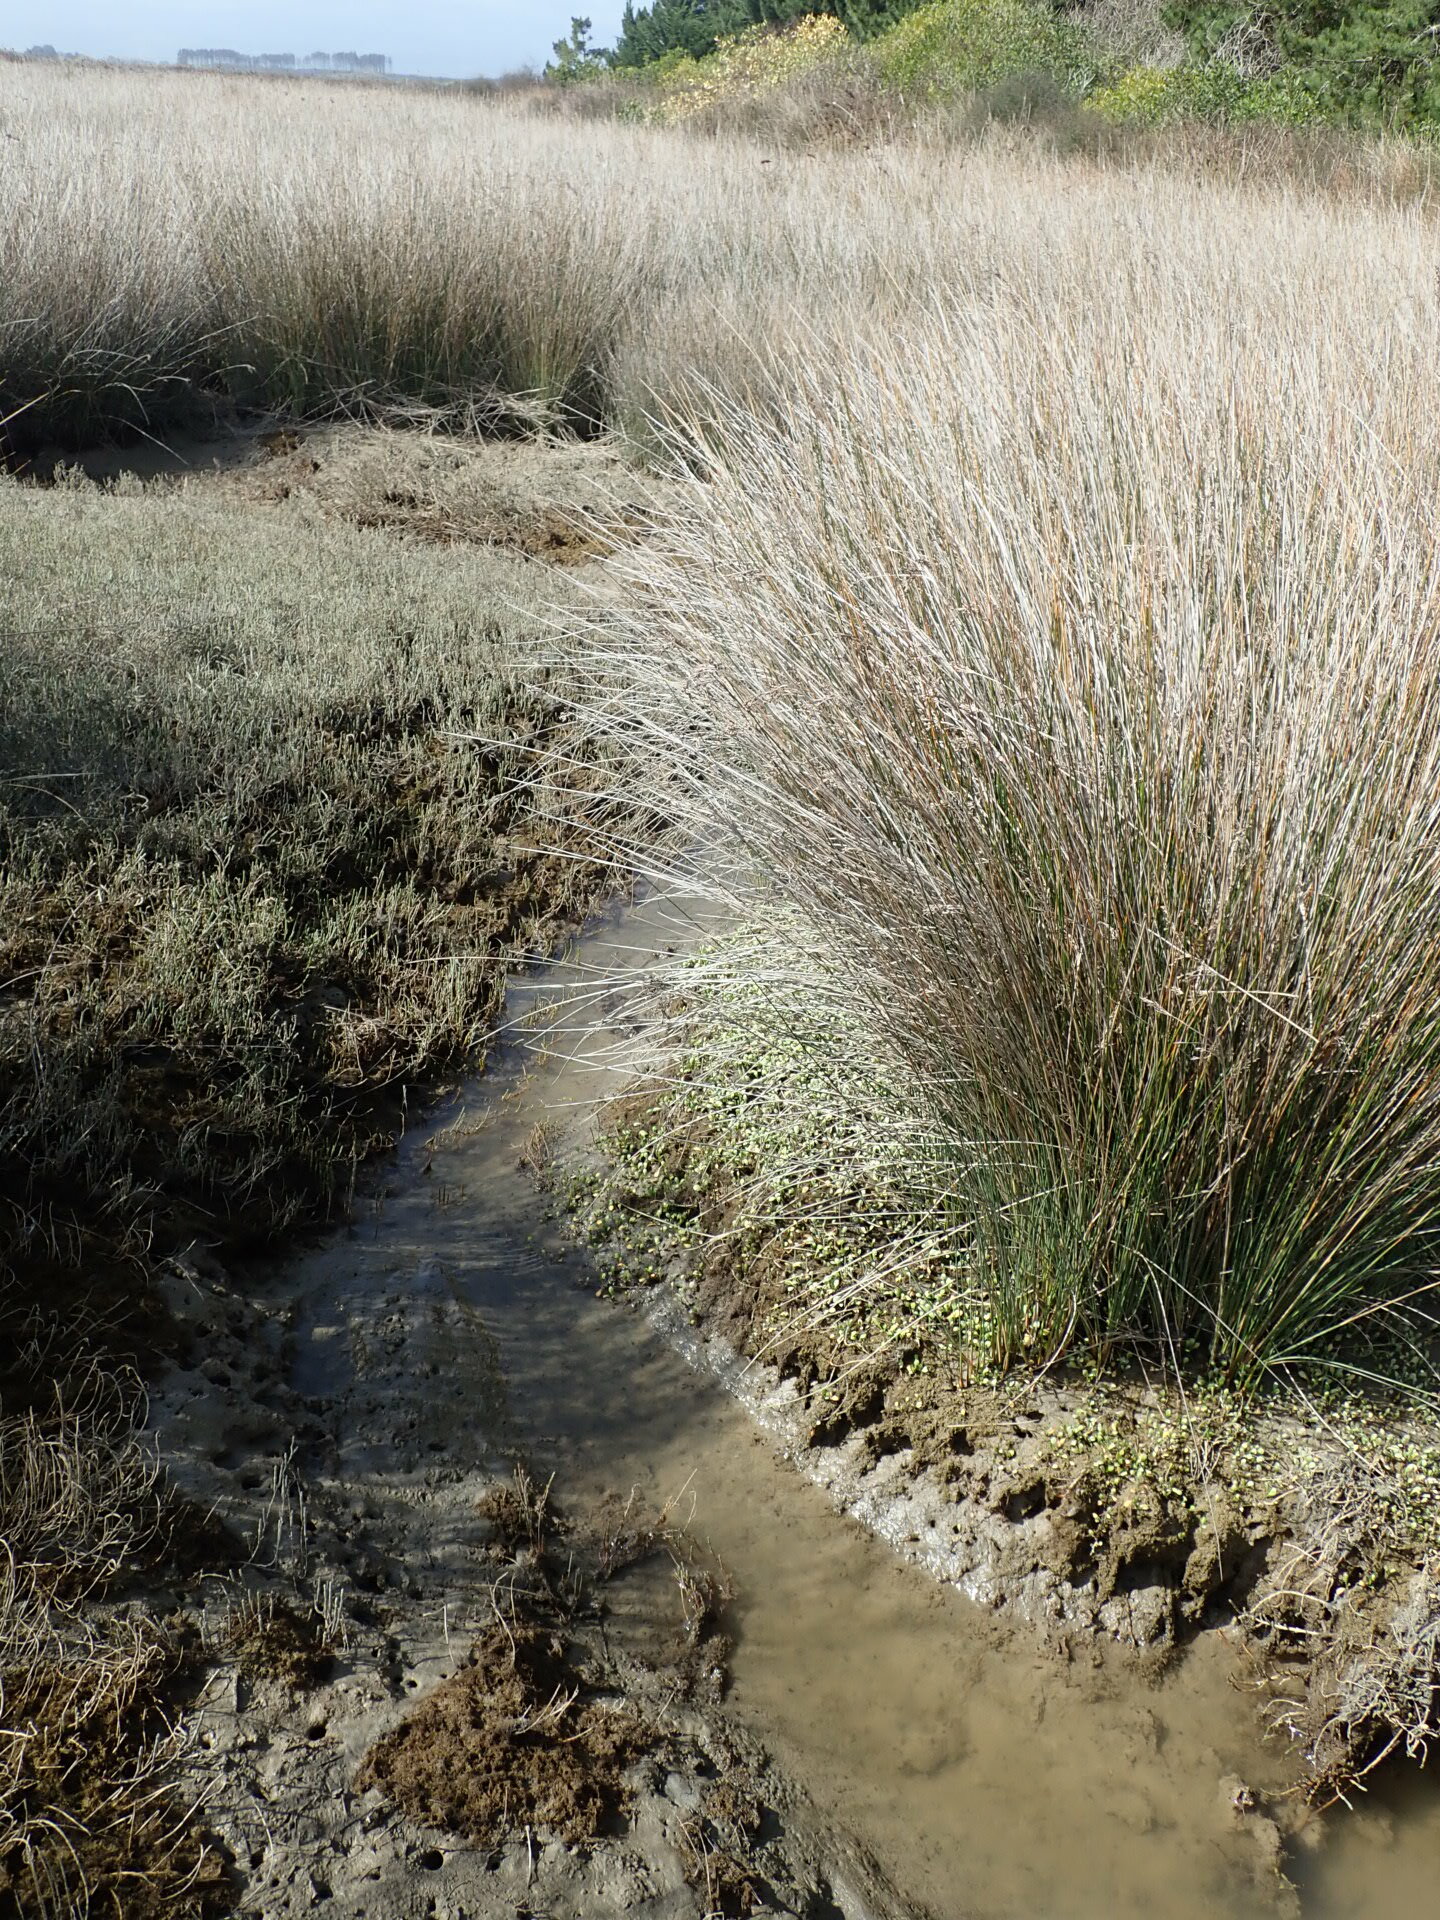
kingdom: Animalia
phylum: Mollusca
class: Gastropoda
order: Littorinimorpha
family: Tateidae
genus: Potamopyrgus
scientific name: Potamopyrgus estuarinus
